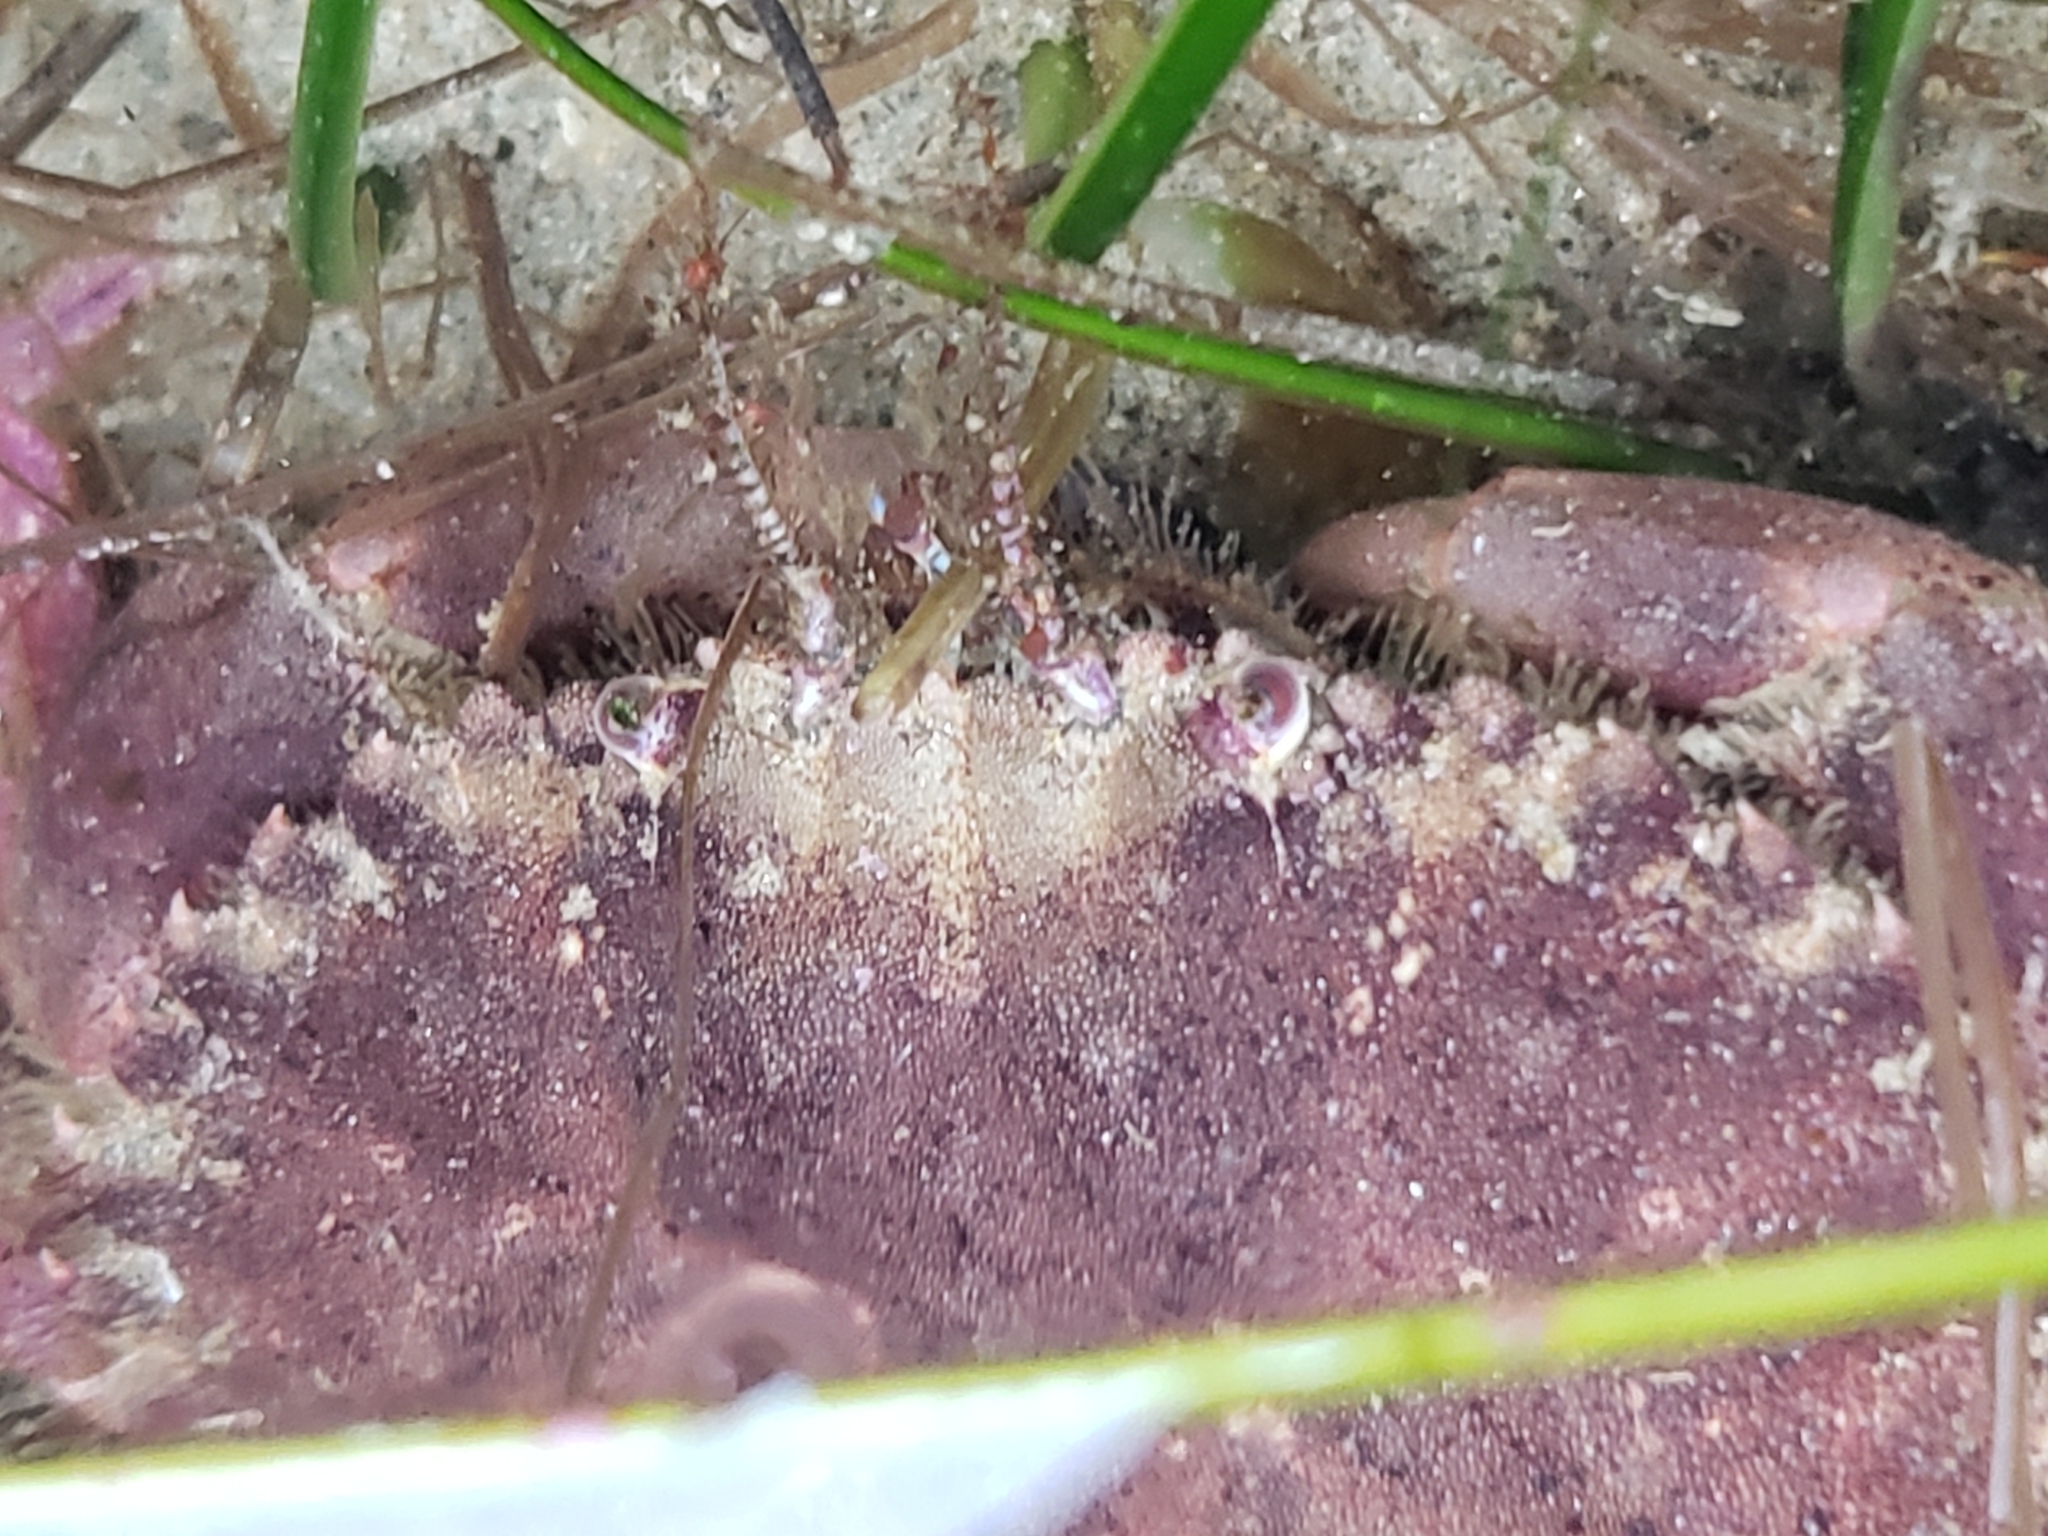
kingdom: Animalia
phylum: Arthropoda
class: Malacostraca
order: Decapoda
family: Cancridae
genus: Romaleon
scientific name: Romaleon antennarium
